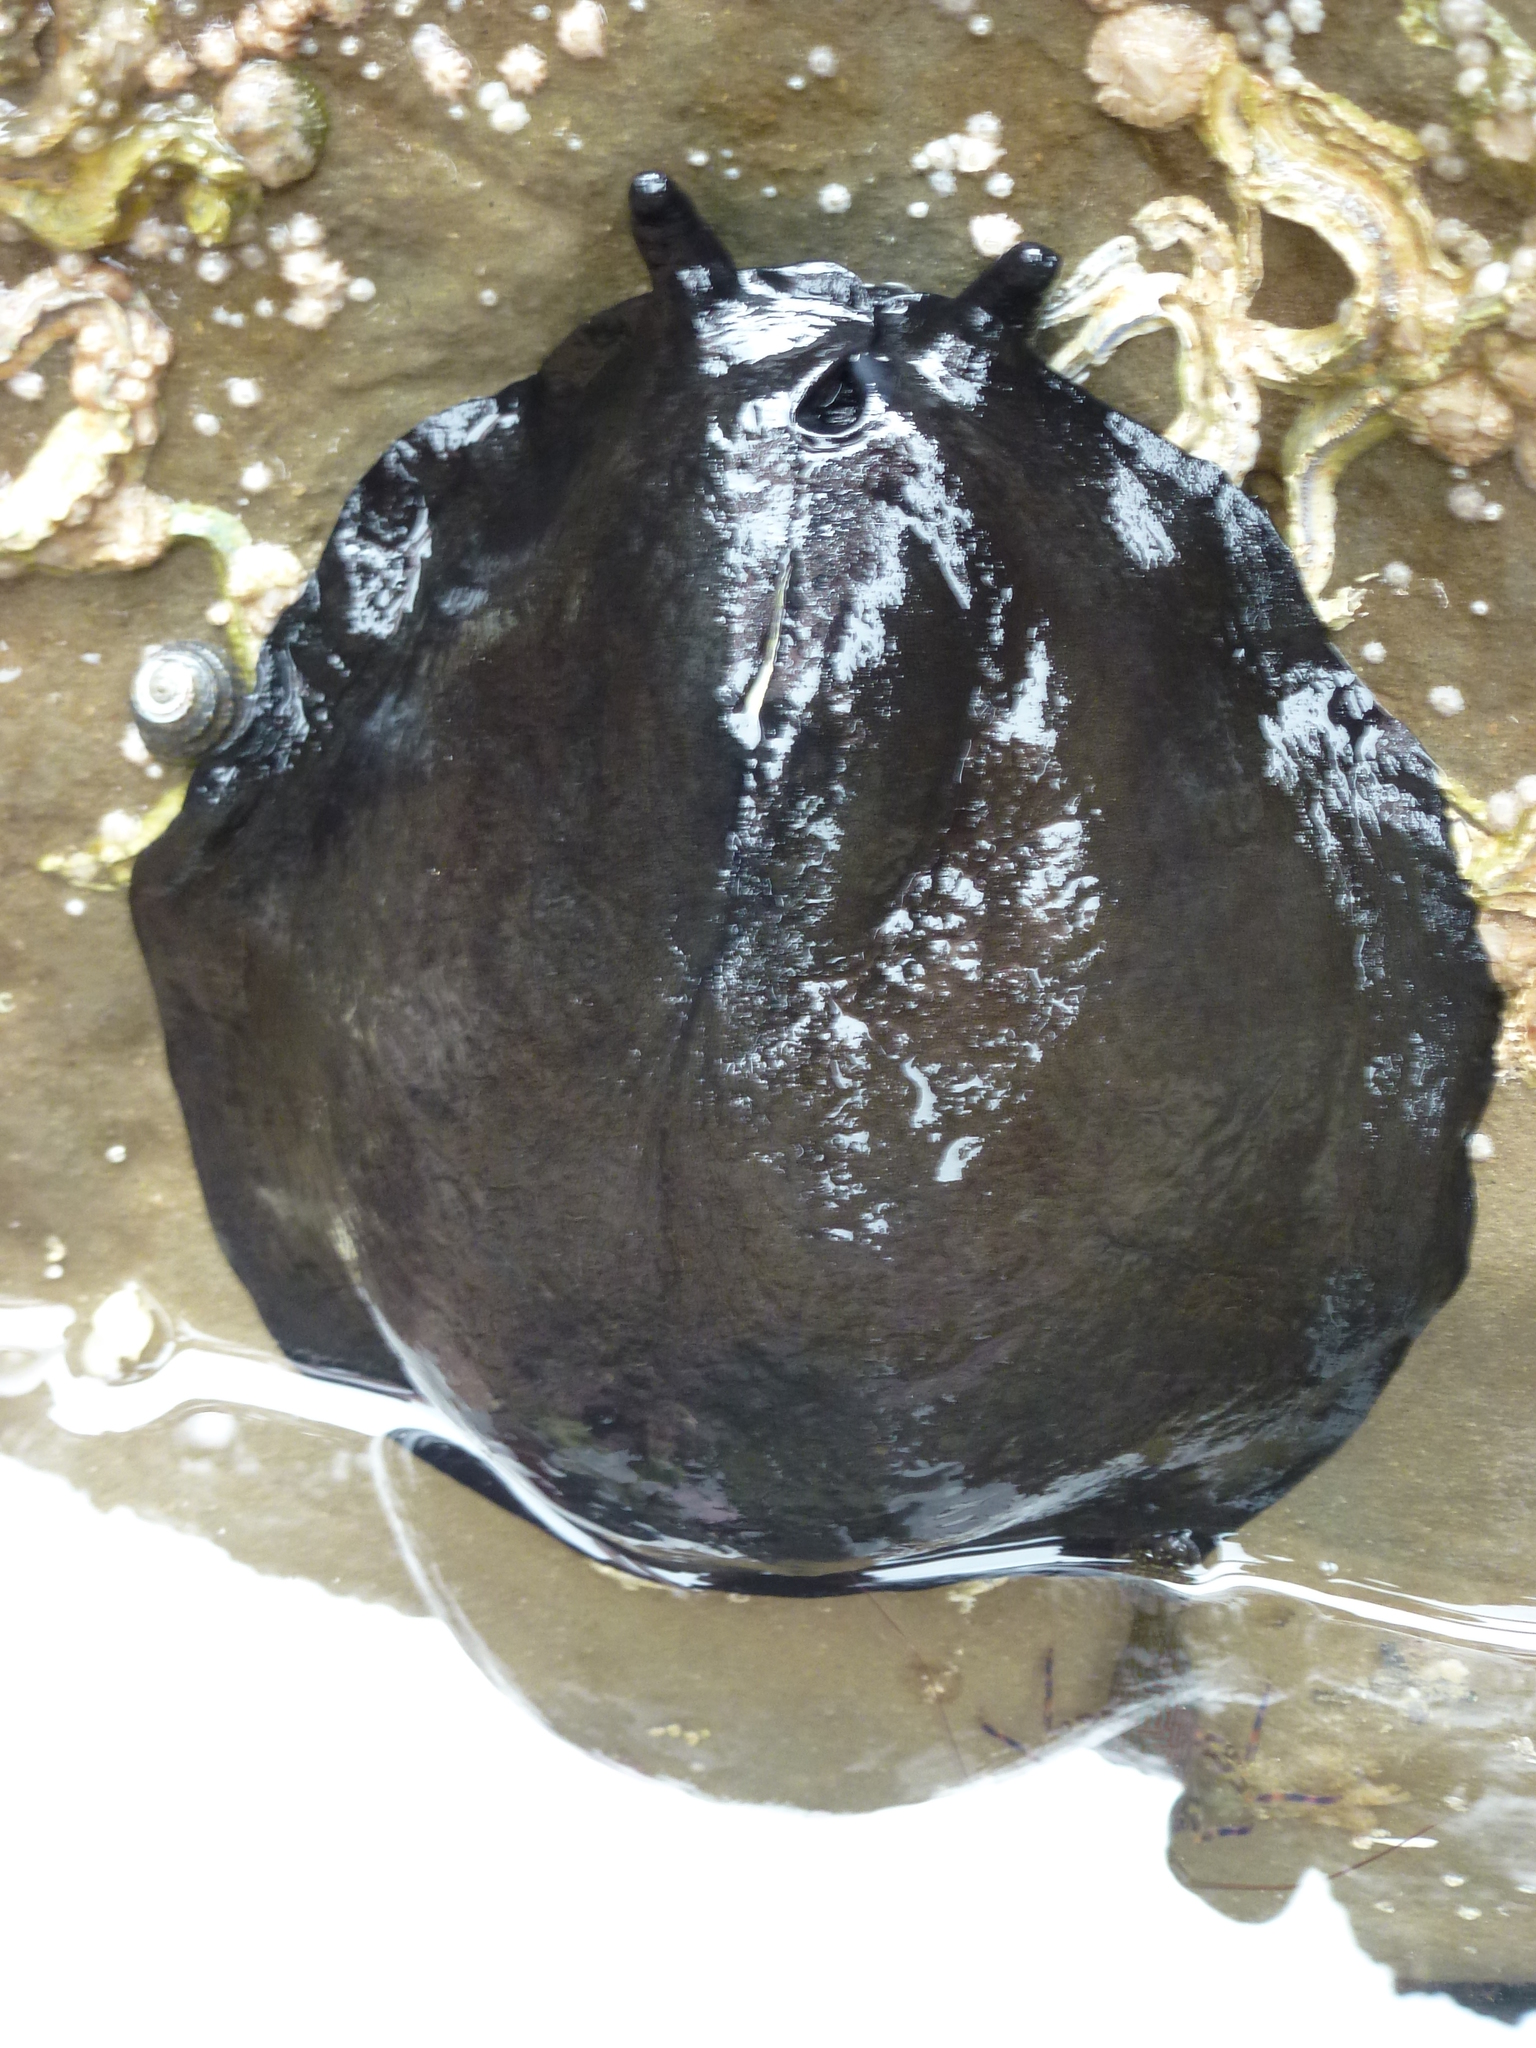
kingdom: Animalia
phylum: Mollusca
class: Gastropoda
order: Lepetellida
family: Fissurellidae
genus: Scutus
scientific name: Scutus breviculus
